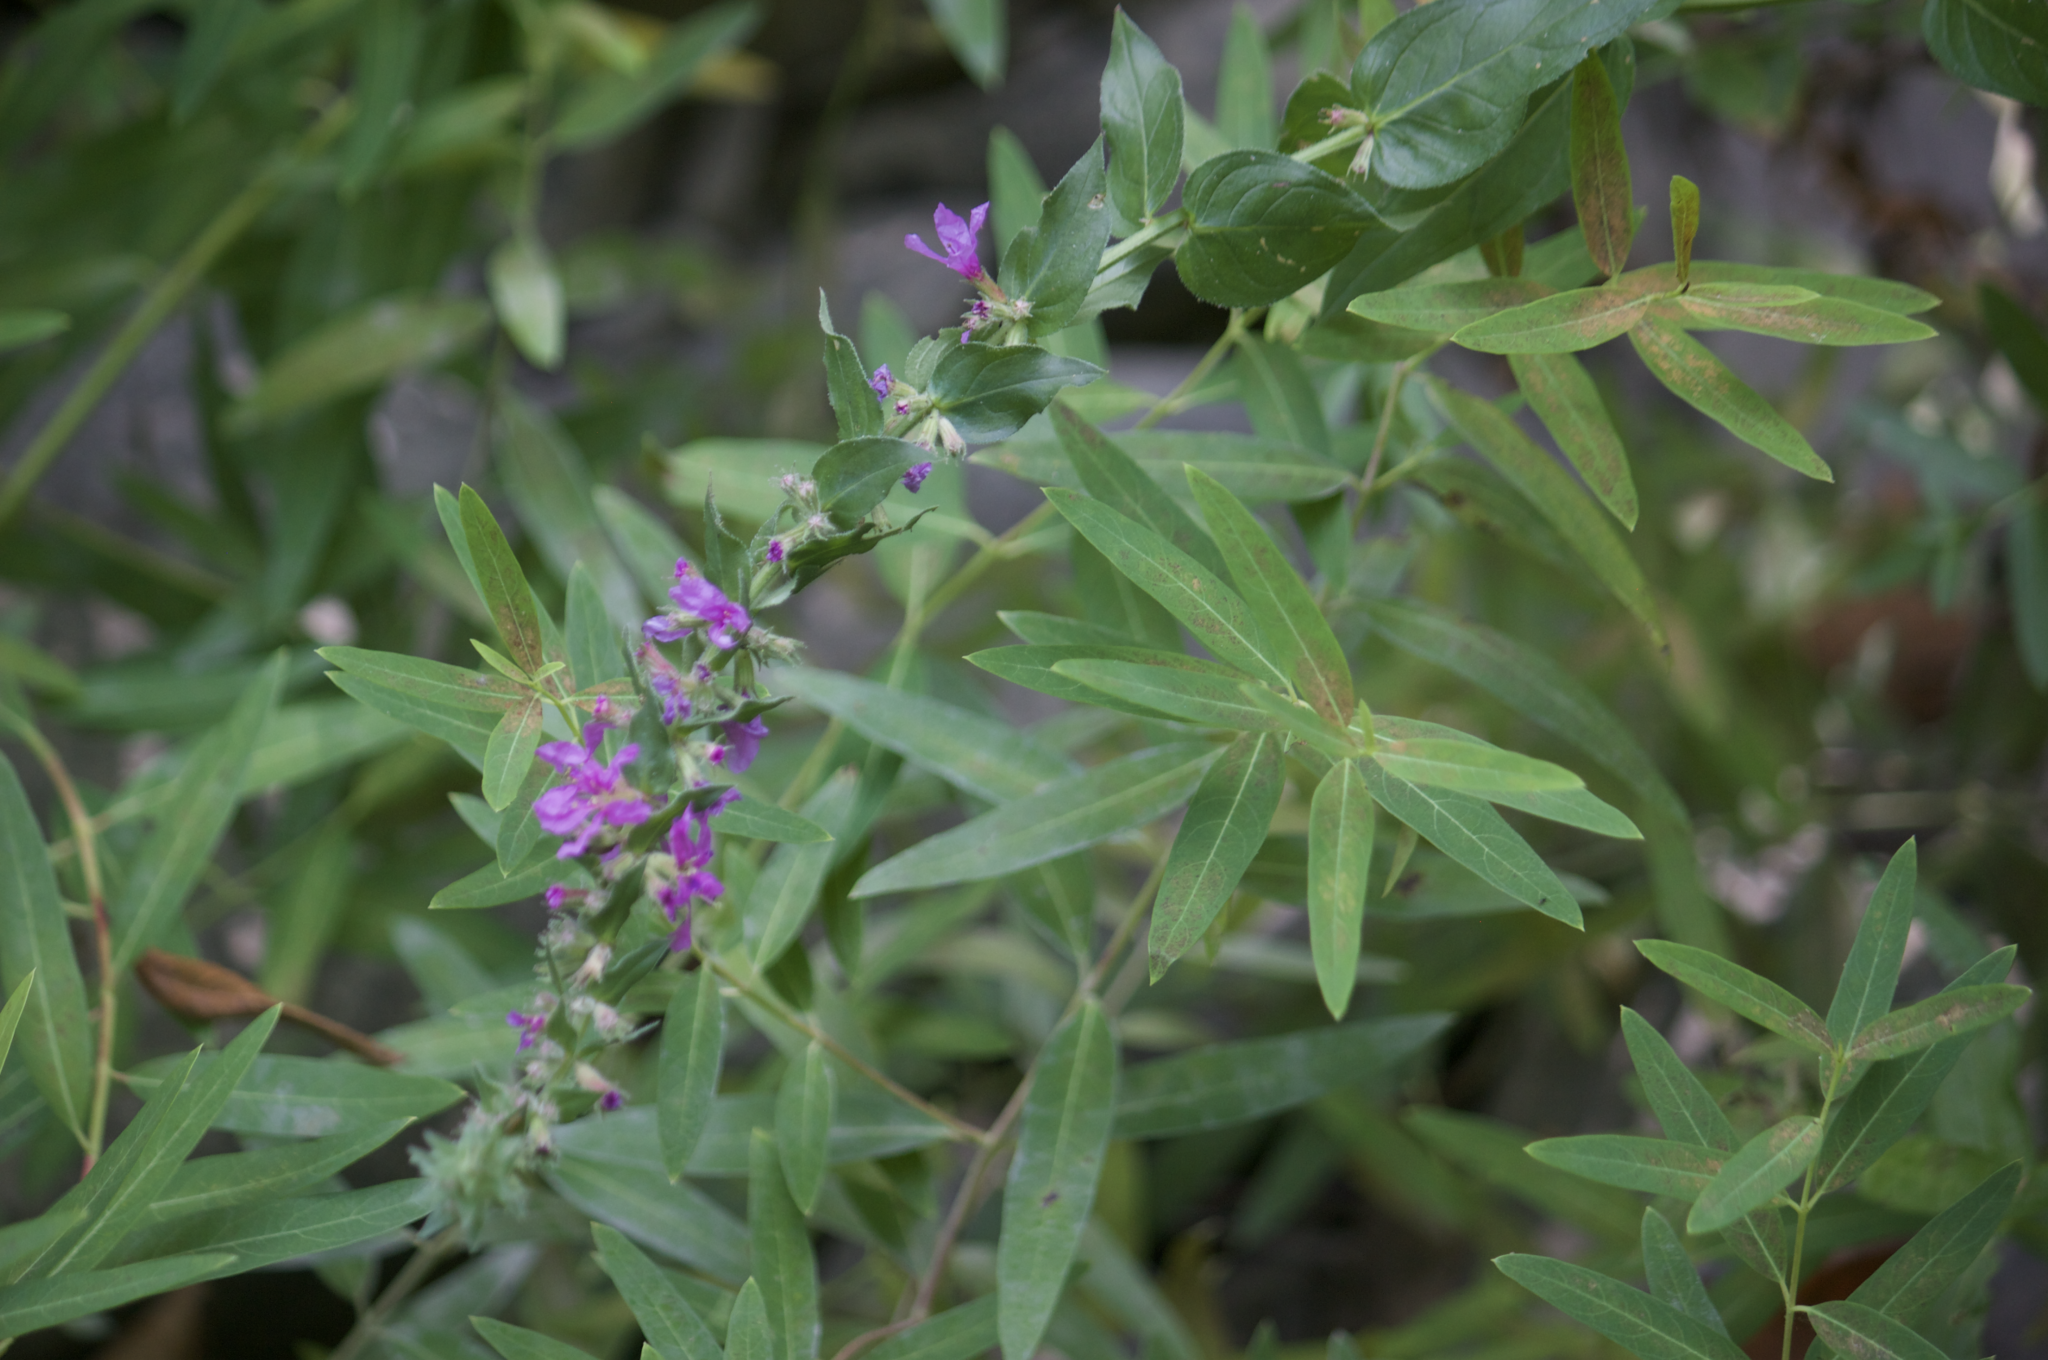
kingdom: Plantae
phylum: Tracheophyta
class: Magnoliopsida
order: Myrtales
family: Lythraceae
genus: Lythrum
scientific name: Lythrum salicaria
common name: Purple loosestrife
